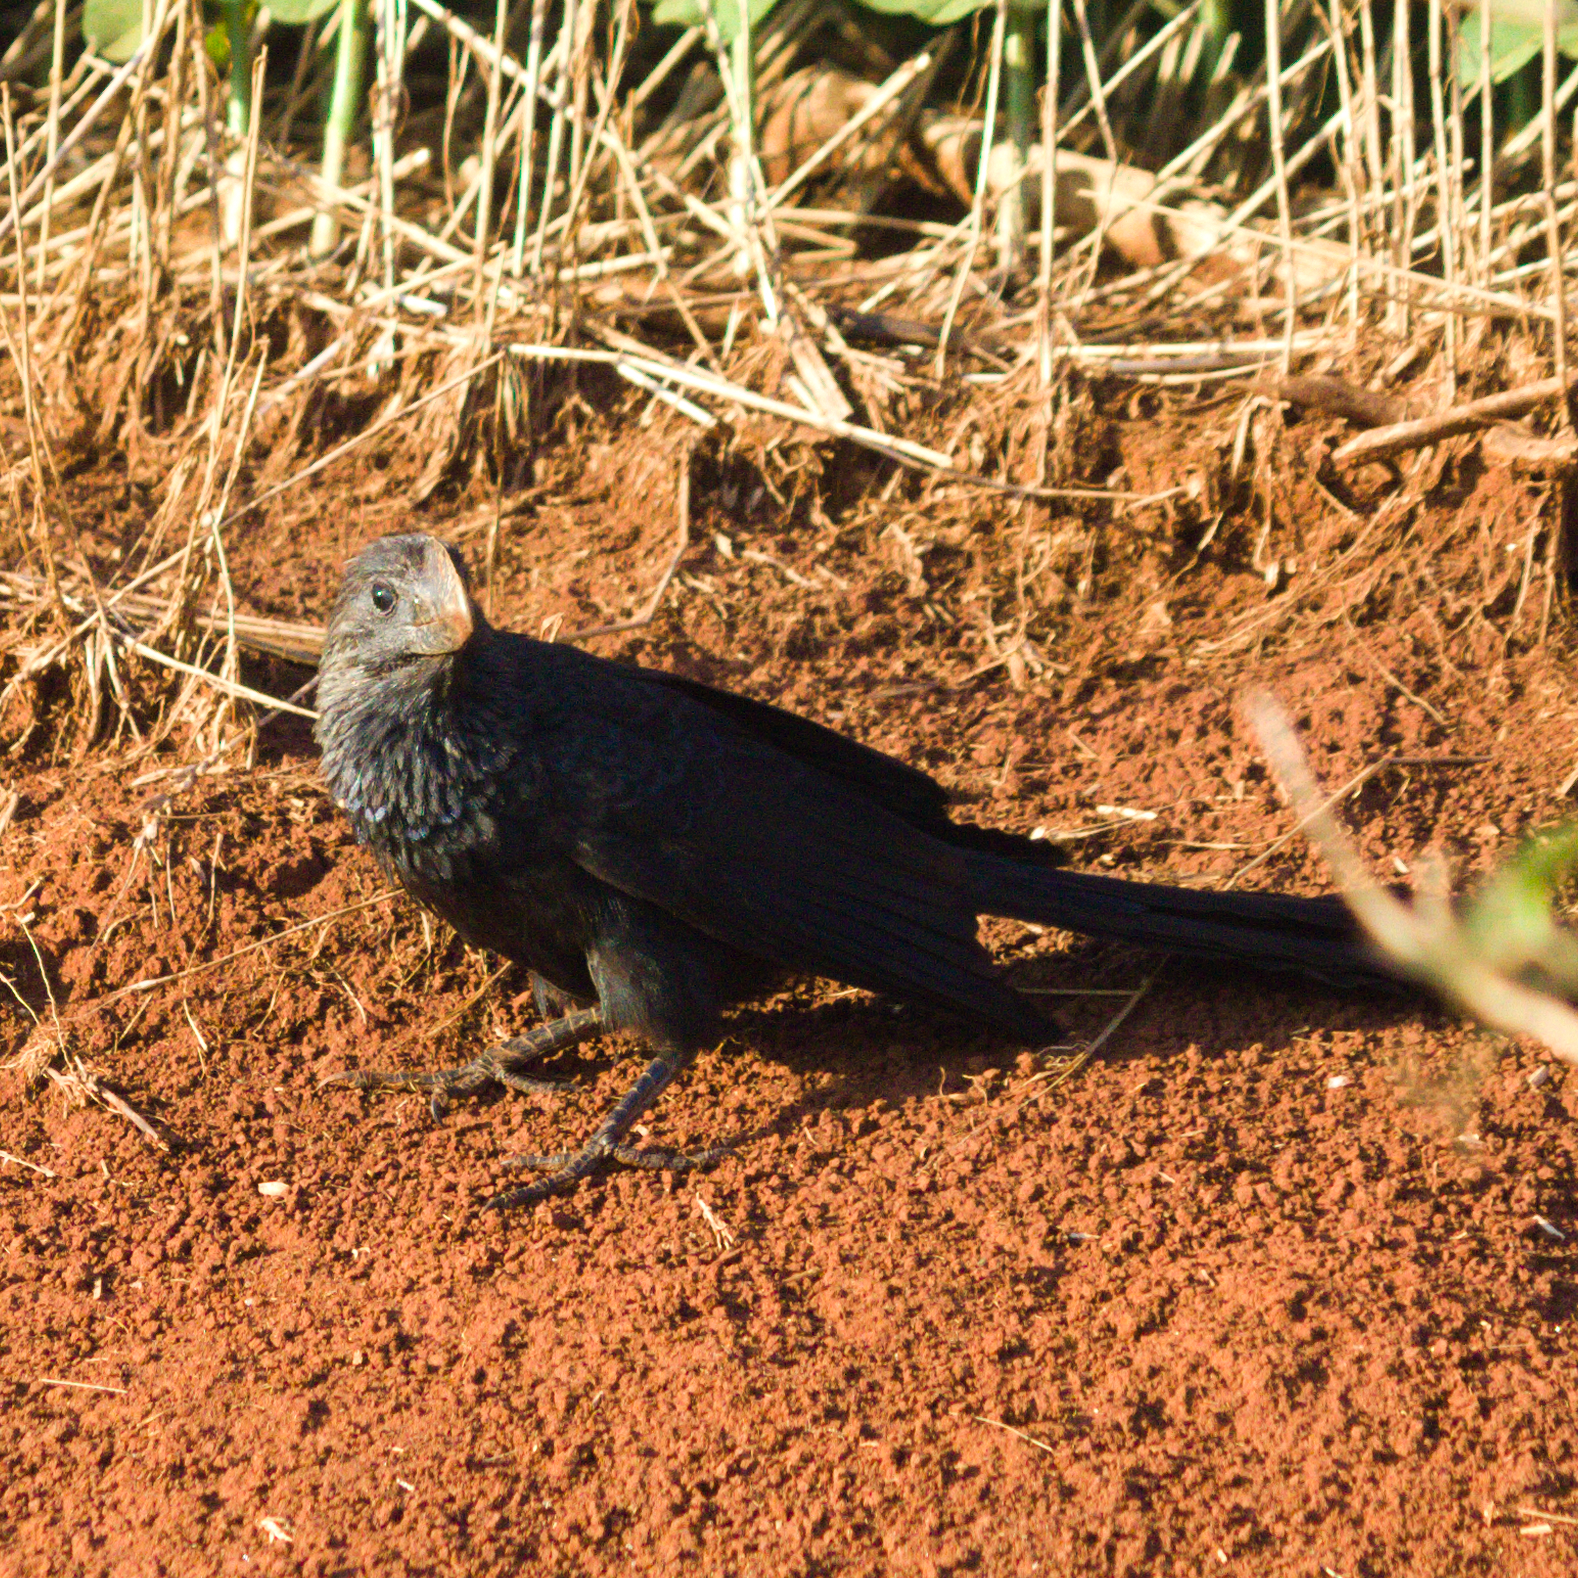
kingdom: Animalia
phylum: Chordata
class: Aves
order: Cuculiformes
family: Cuculidae
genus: Crotophaga
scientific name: Crotophaga ani
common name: Smooth-billed ani
